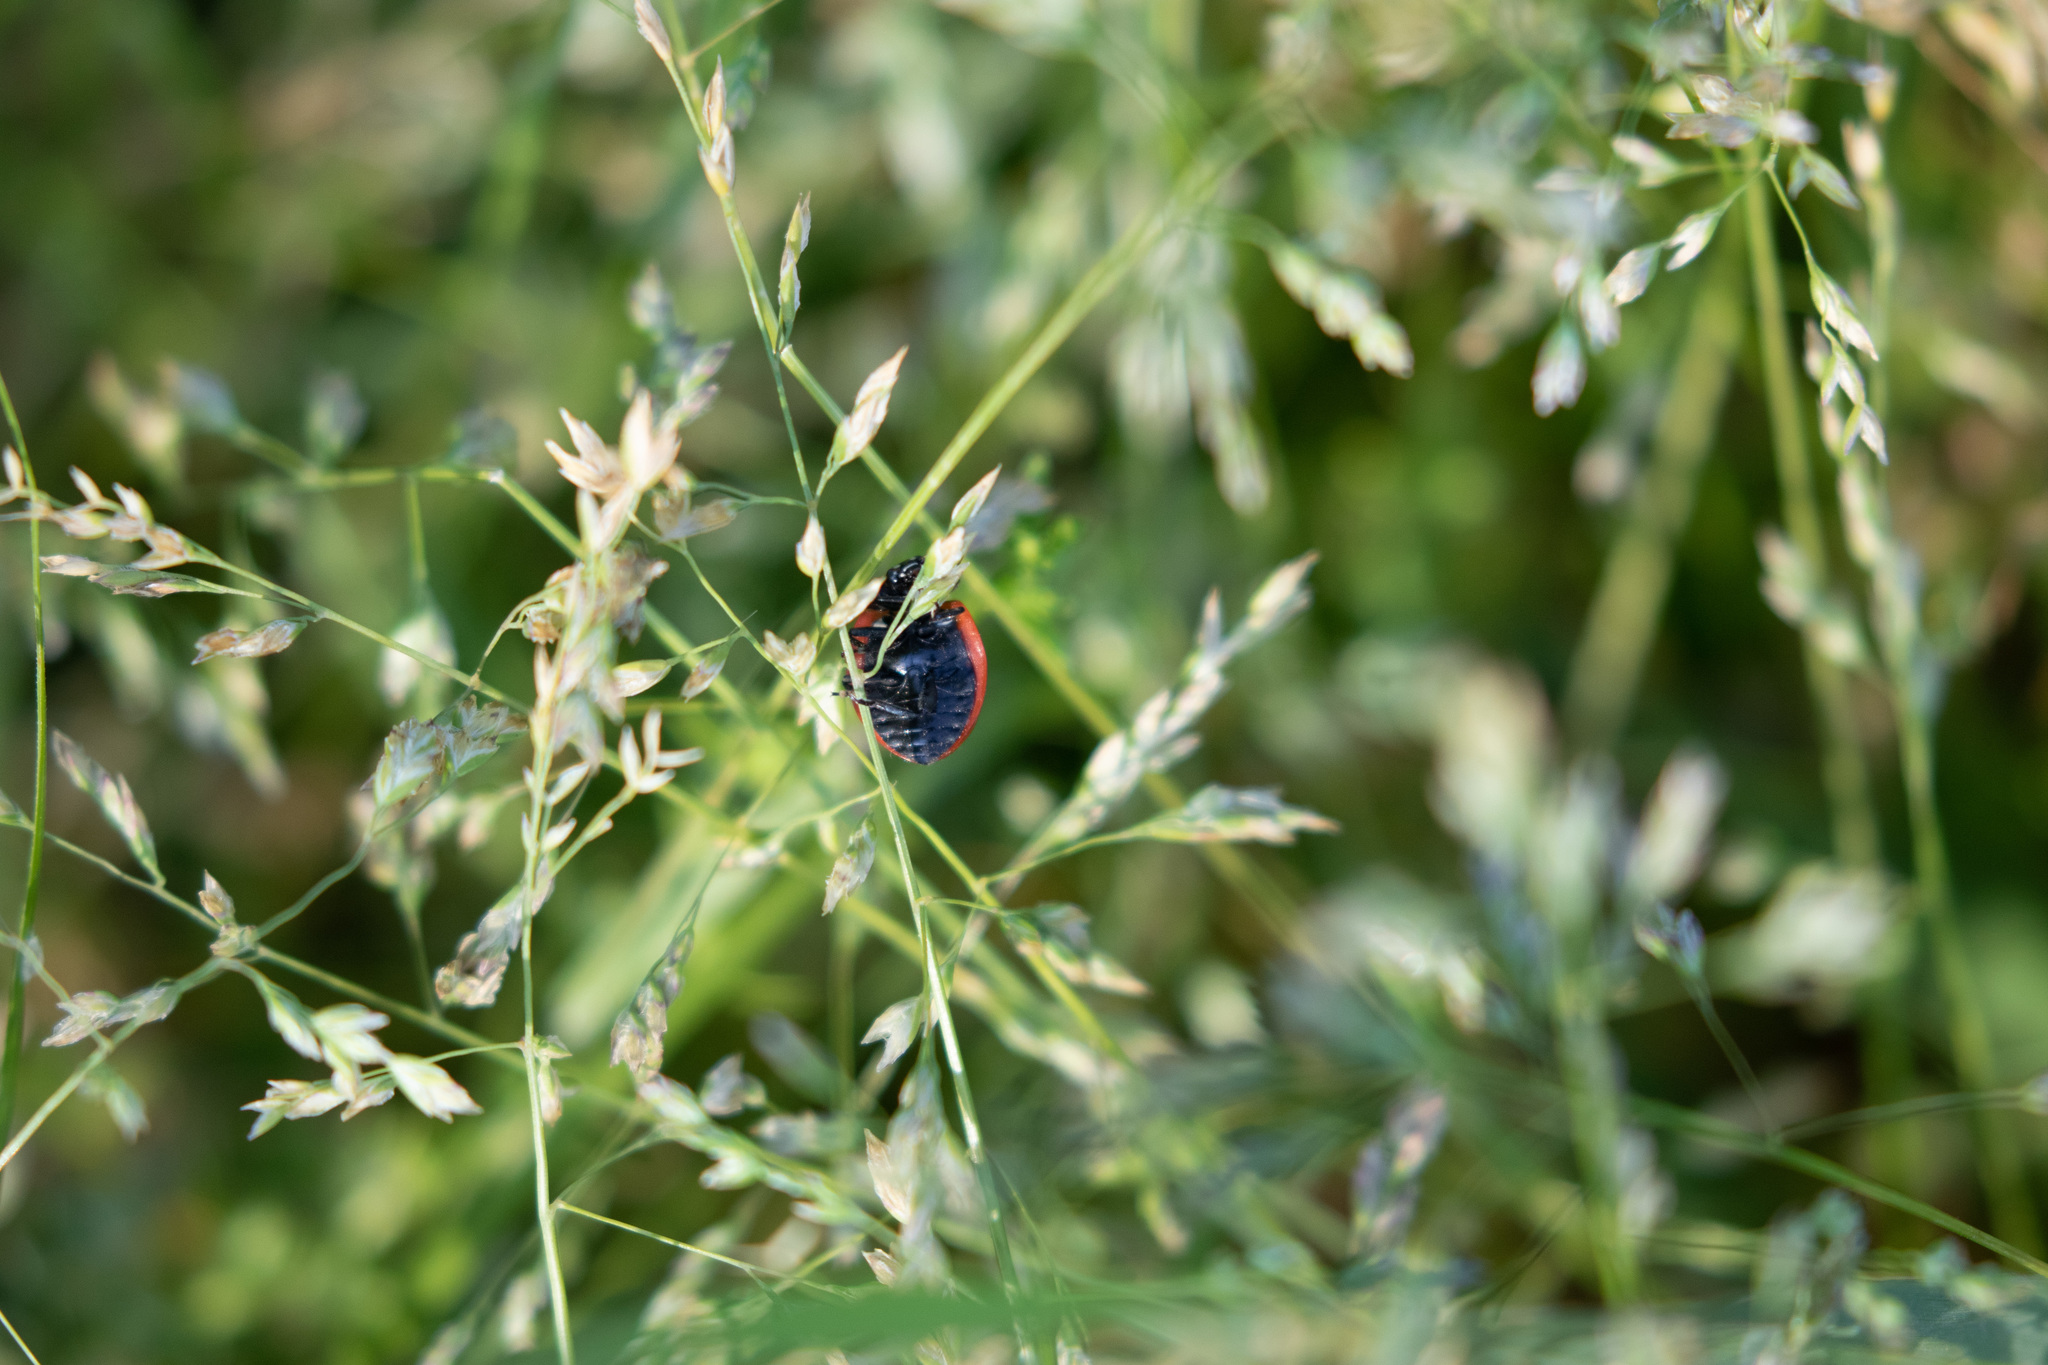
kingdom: Animalia
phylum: Arthropoda
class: Insecta
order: Coleoptera
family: Coccinellidae
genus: Coccinella
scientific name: Coccinella septempunctata
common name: Sevenspotted lady beetle
